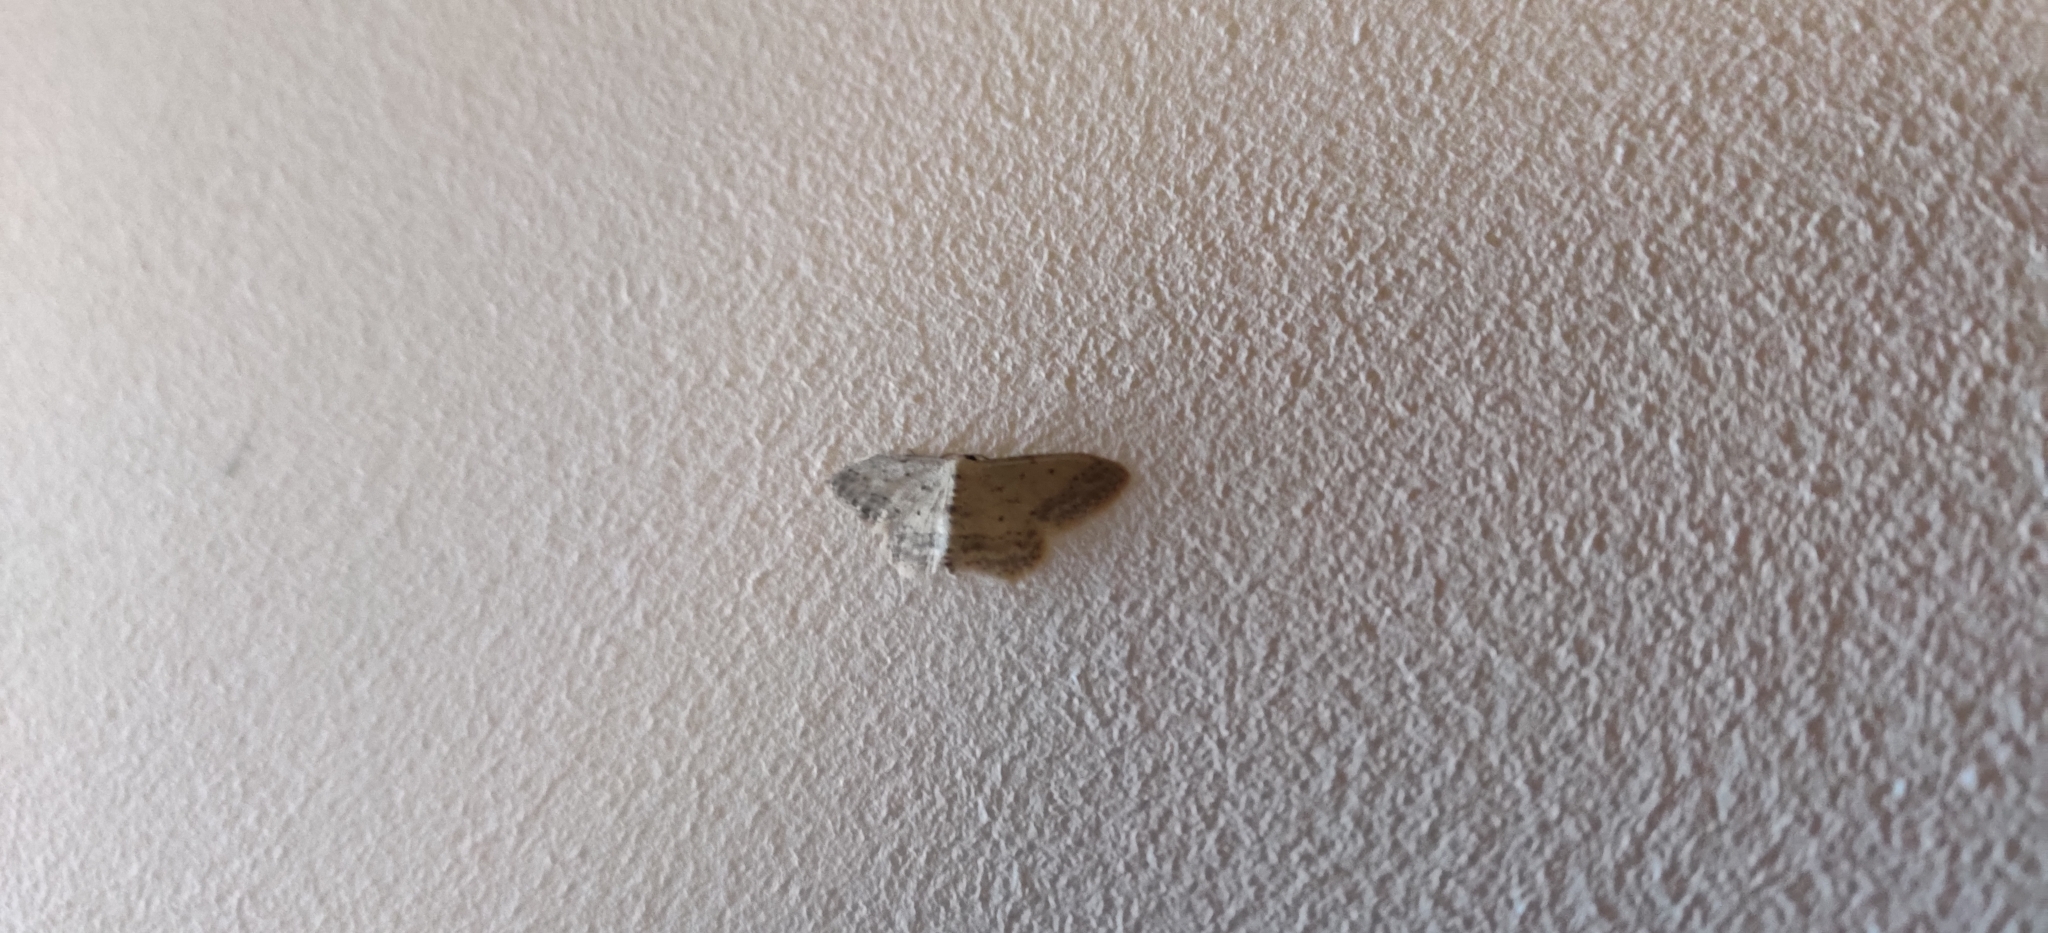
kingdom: Animalia
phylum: Arthropoda
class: Insecta
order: Lepidoptera
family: Geometridae
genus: Idaea
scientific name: Idaea seriata
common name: Small dusty wave
